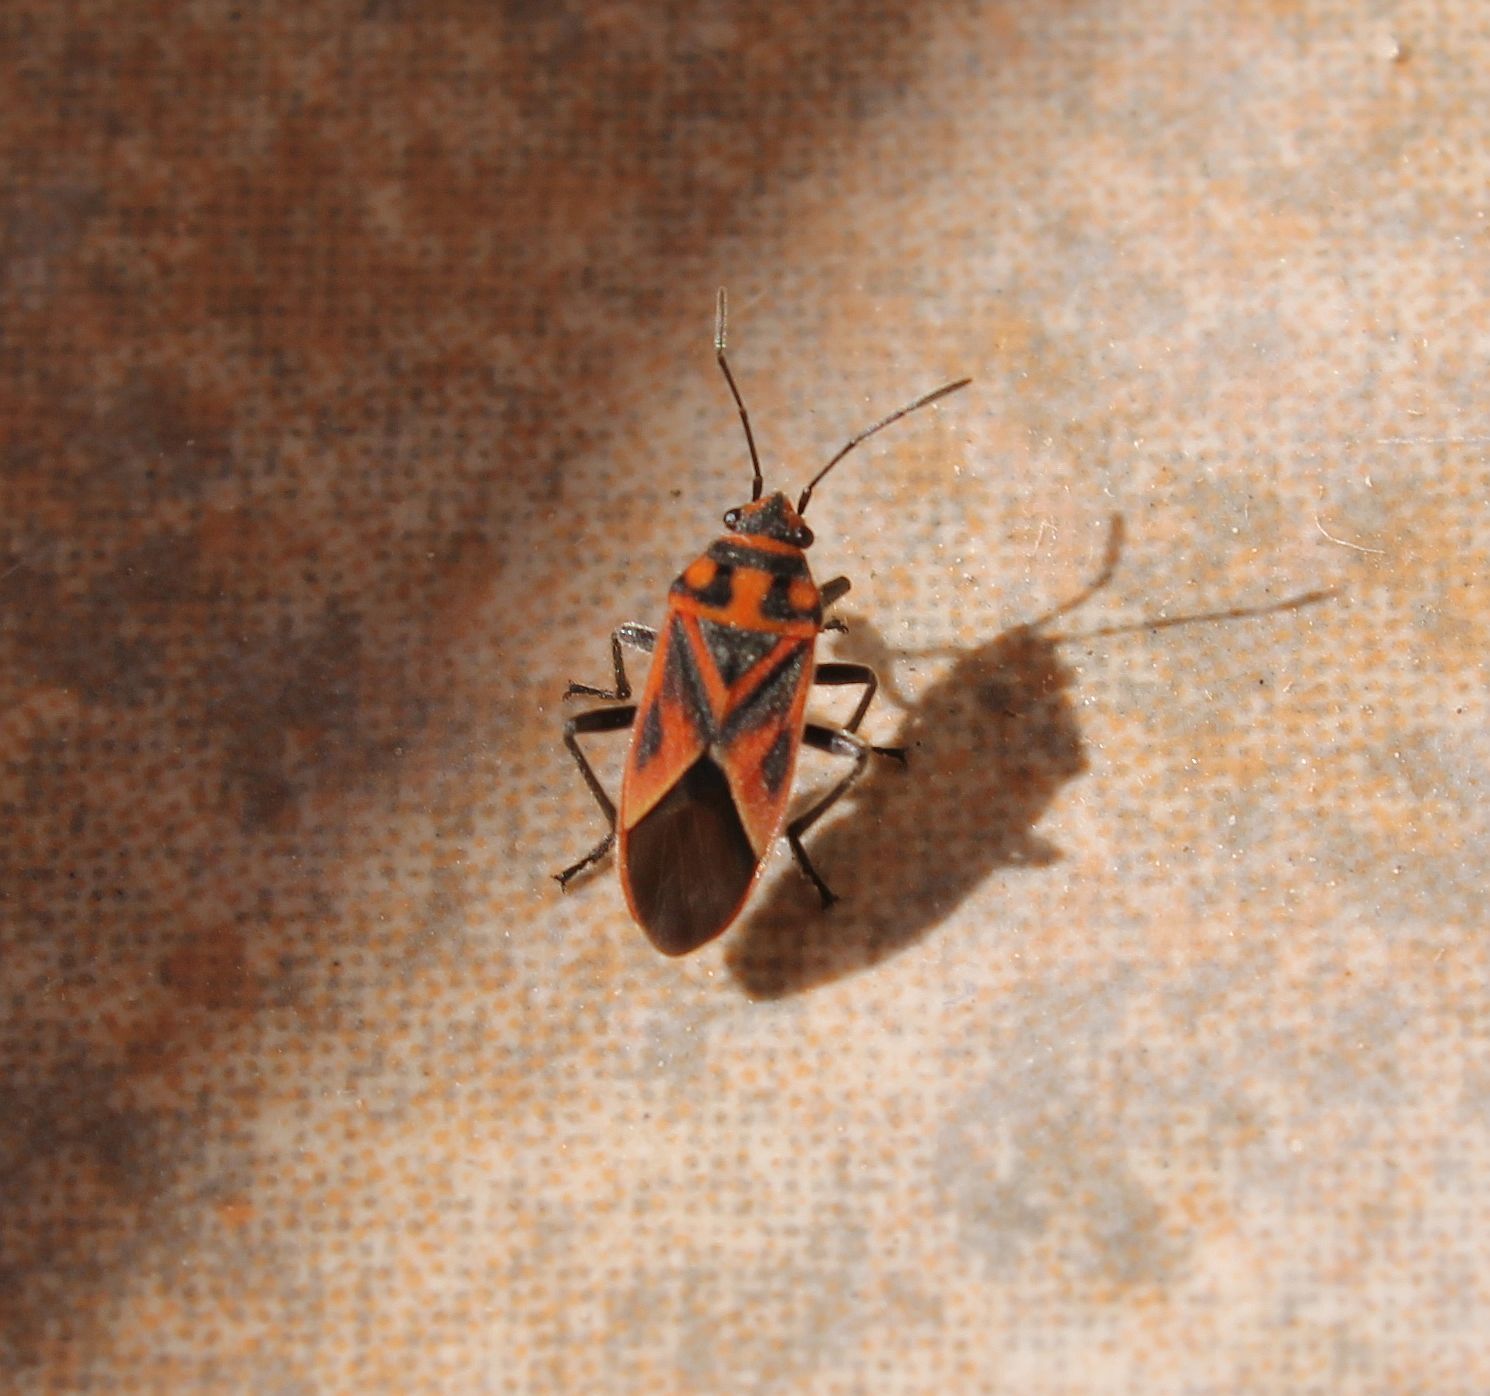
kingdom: Animalia
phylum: Arthropoda
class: Insecta
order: Hemiptera
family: Lygaeidae
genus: Graptostethus
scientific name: Graptostethus servus
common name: Lygaeid bug
